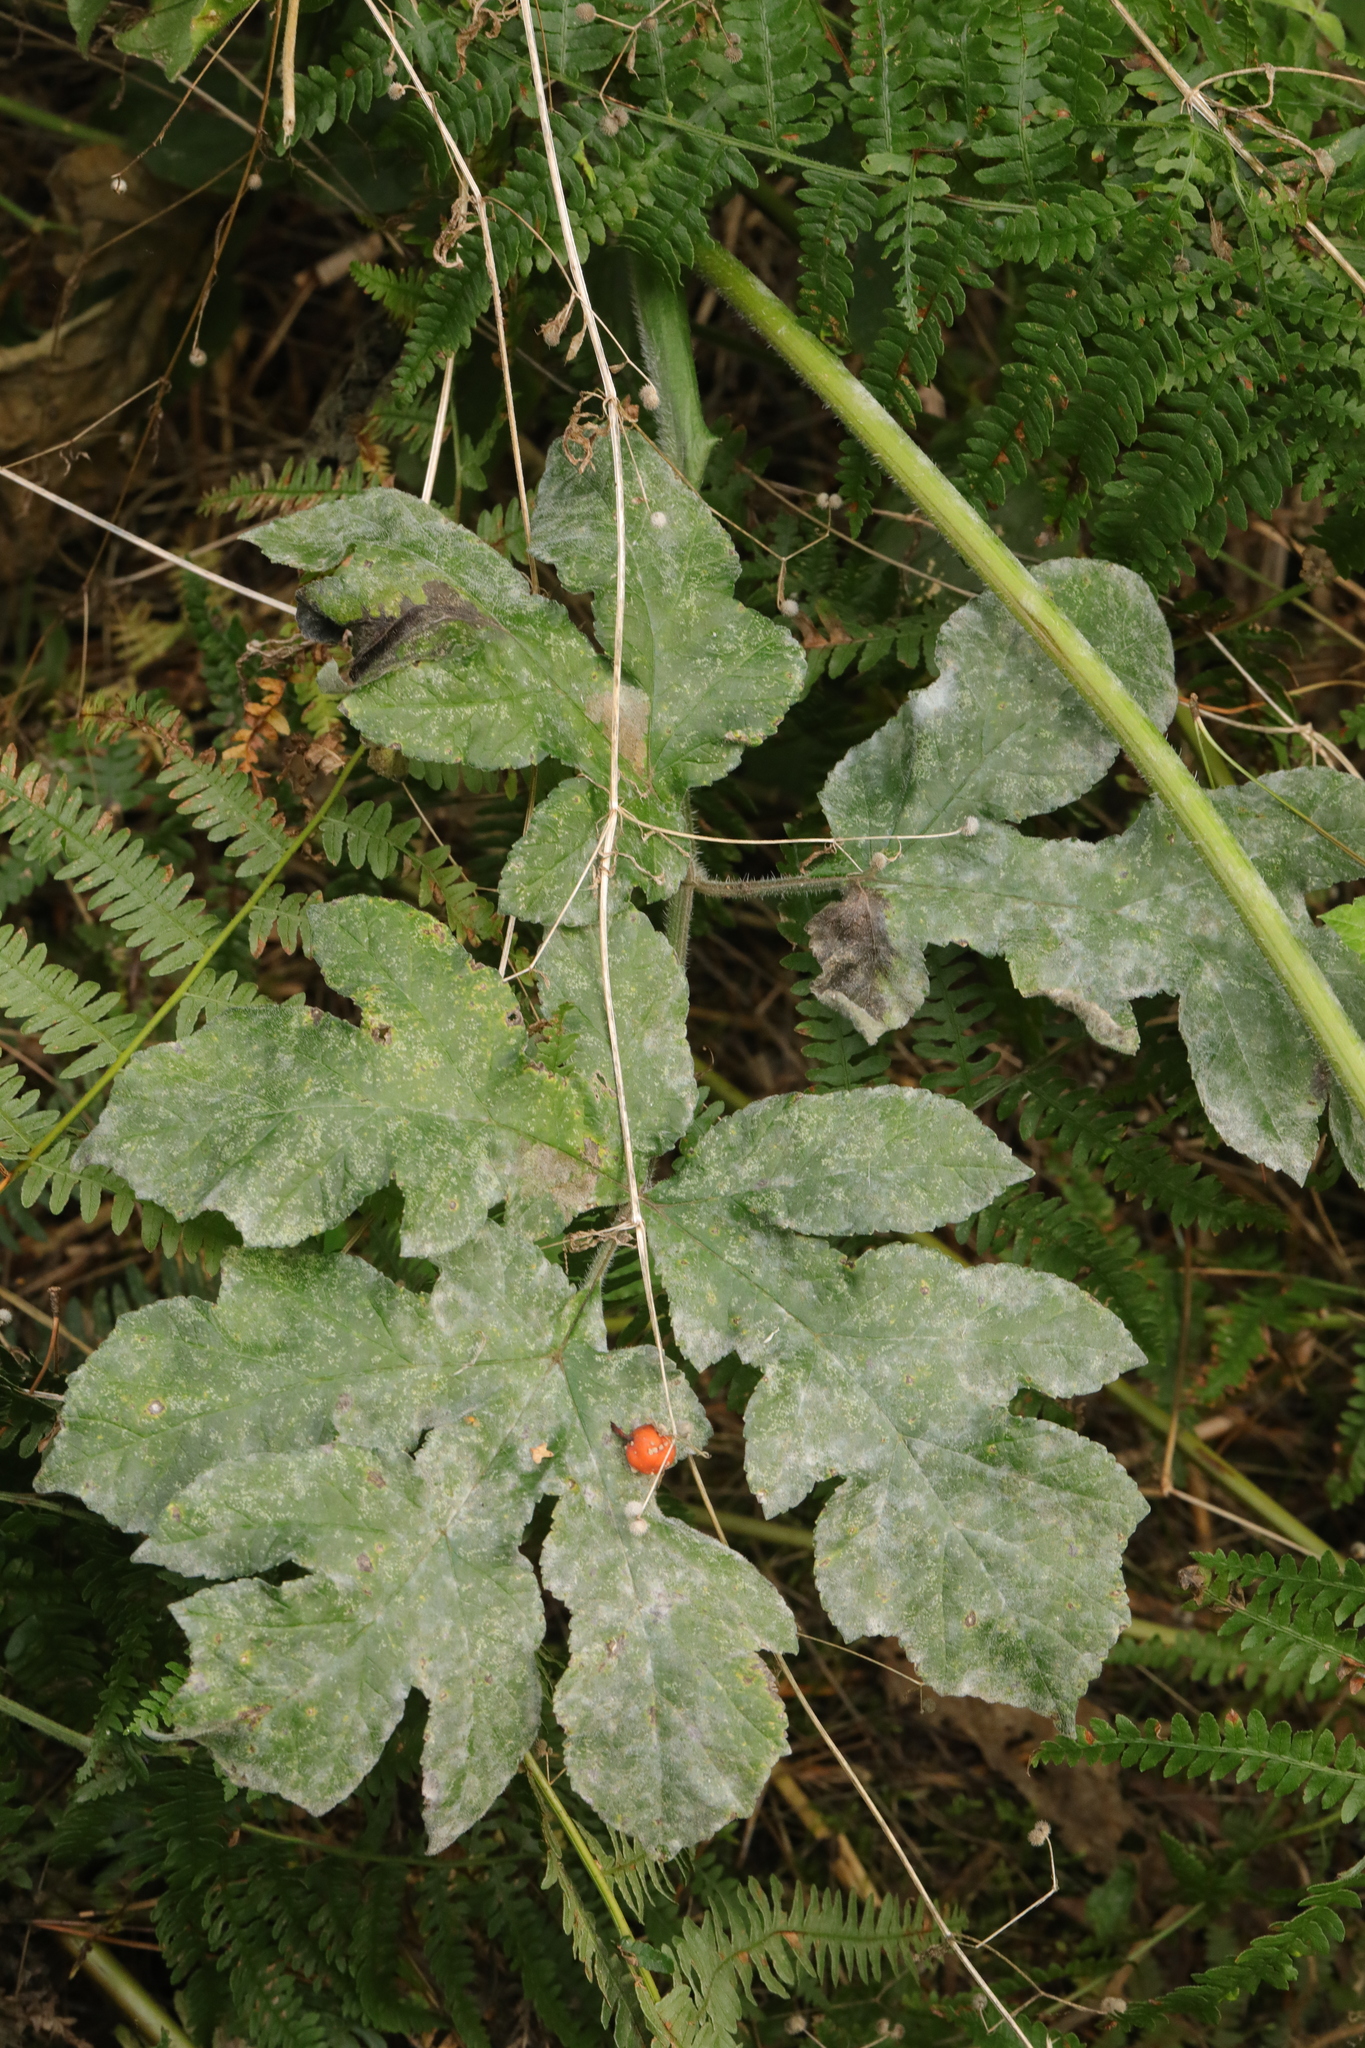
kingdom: Fungi
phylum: Ascomycota
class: Leotiomycetes
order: Helotiales
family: Erysiphaceae
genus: Erysiphe
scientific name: Erysiphe heraclei
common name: Umbellifer mildew
